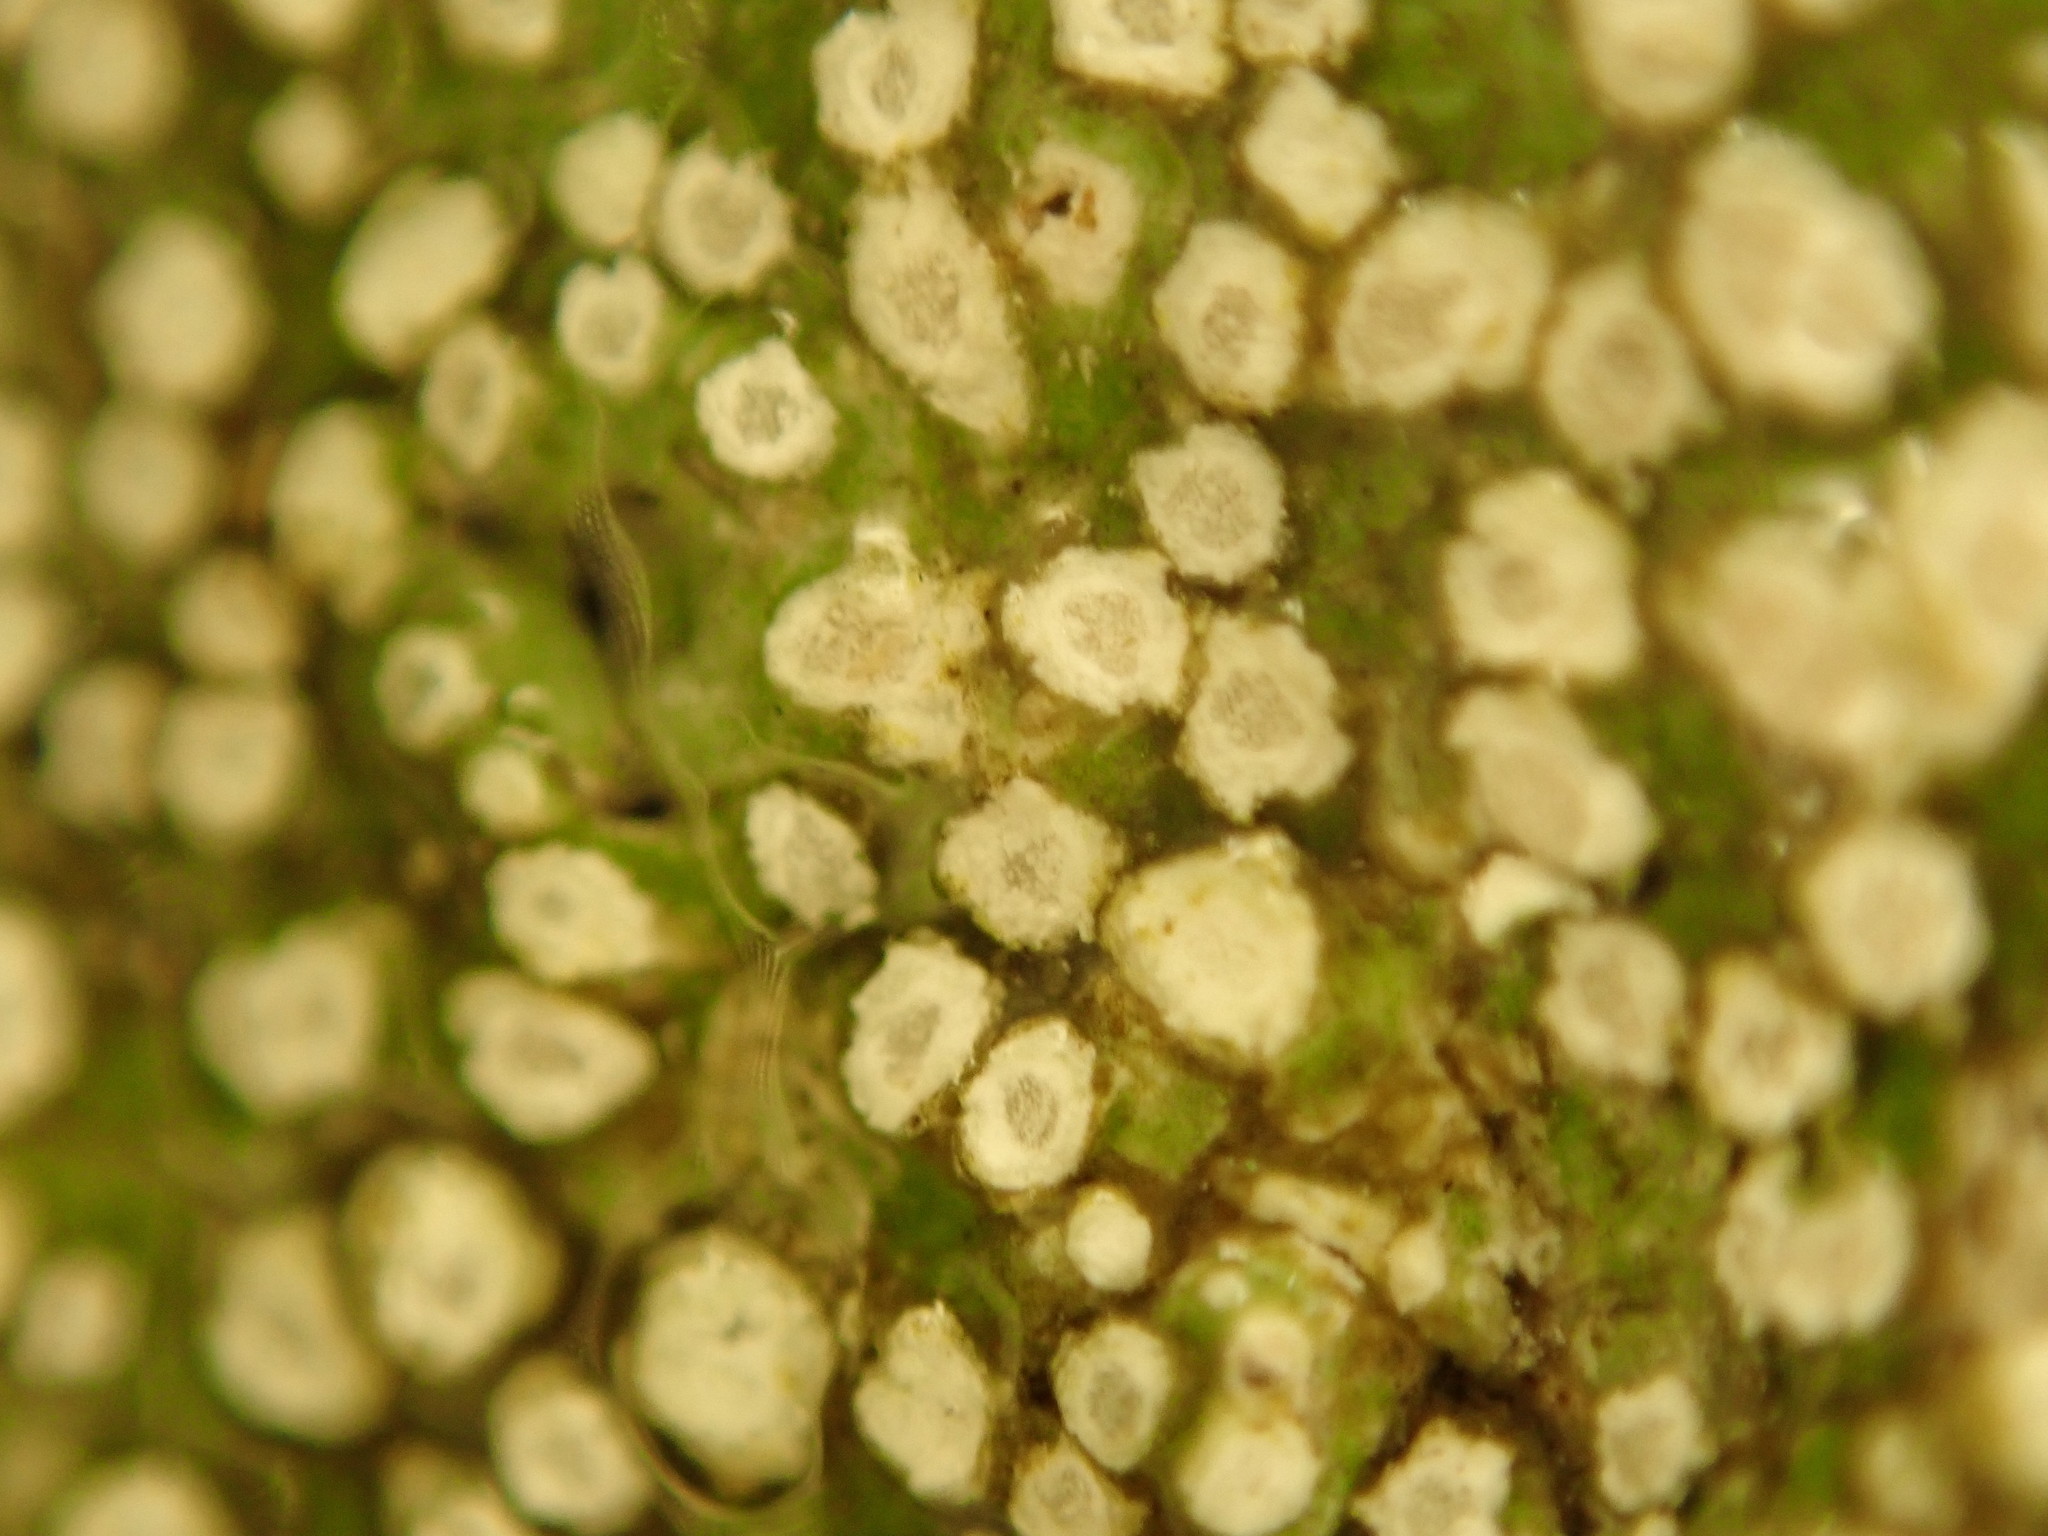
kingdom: Fungi
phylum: Ascomycota
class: Lecanoromycetes
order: Pertusariales
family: Pertusariaceae
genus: Lepra
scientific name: Lepra amara
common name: Bitter wart lichen
